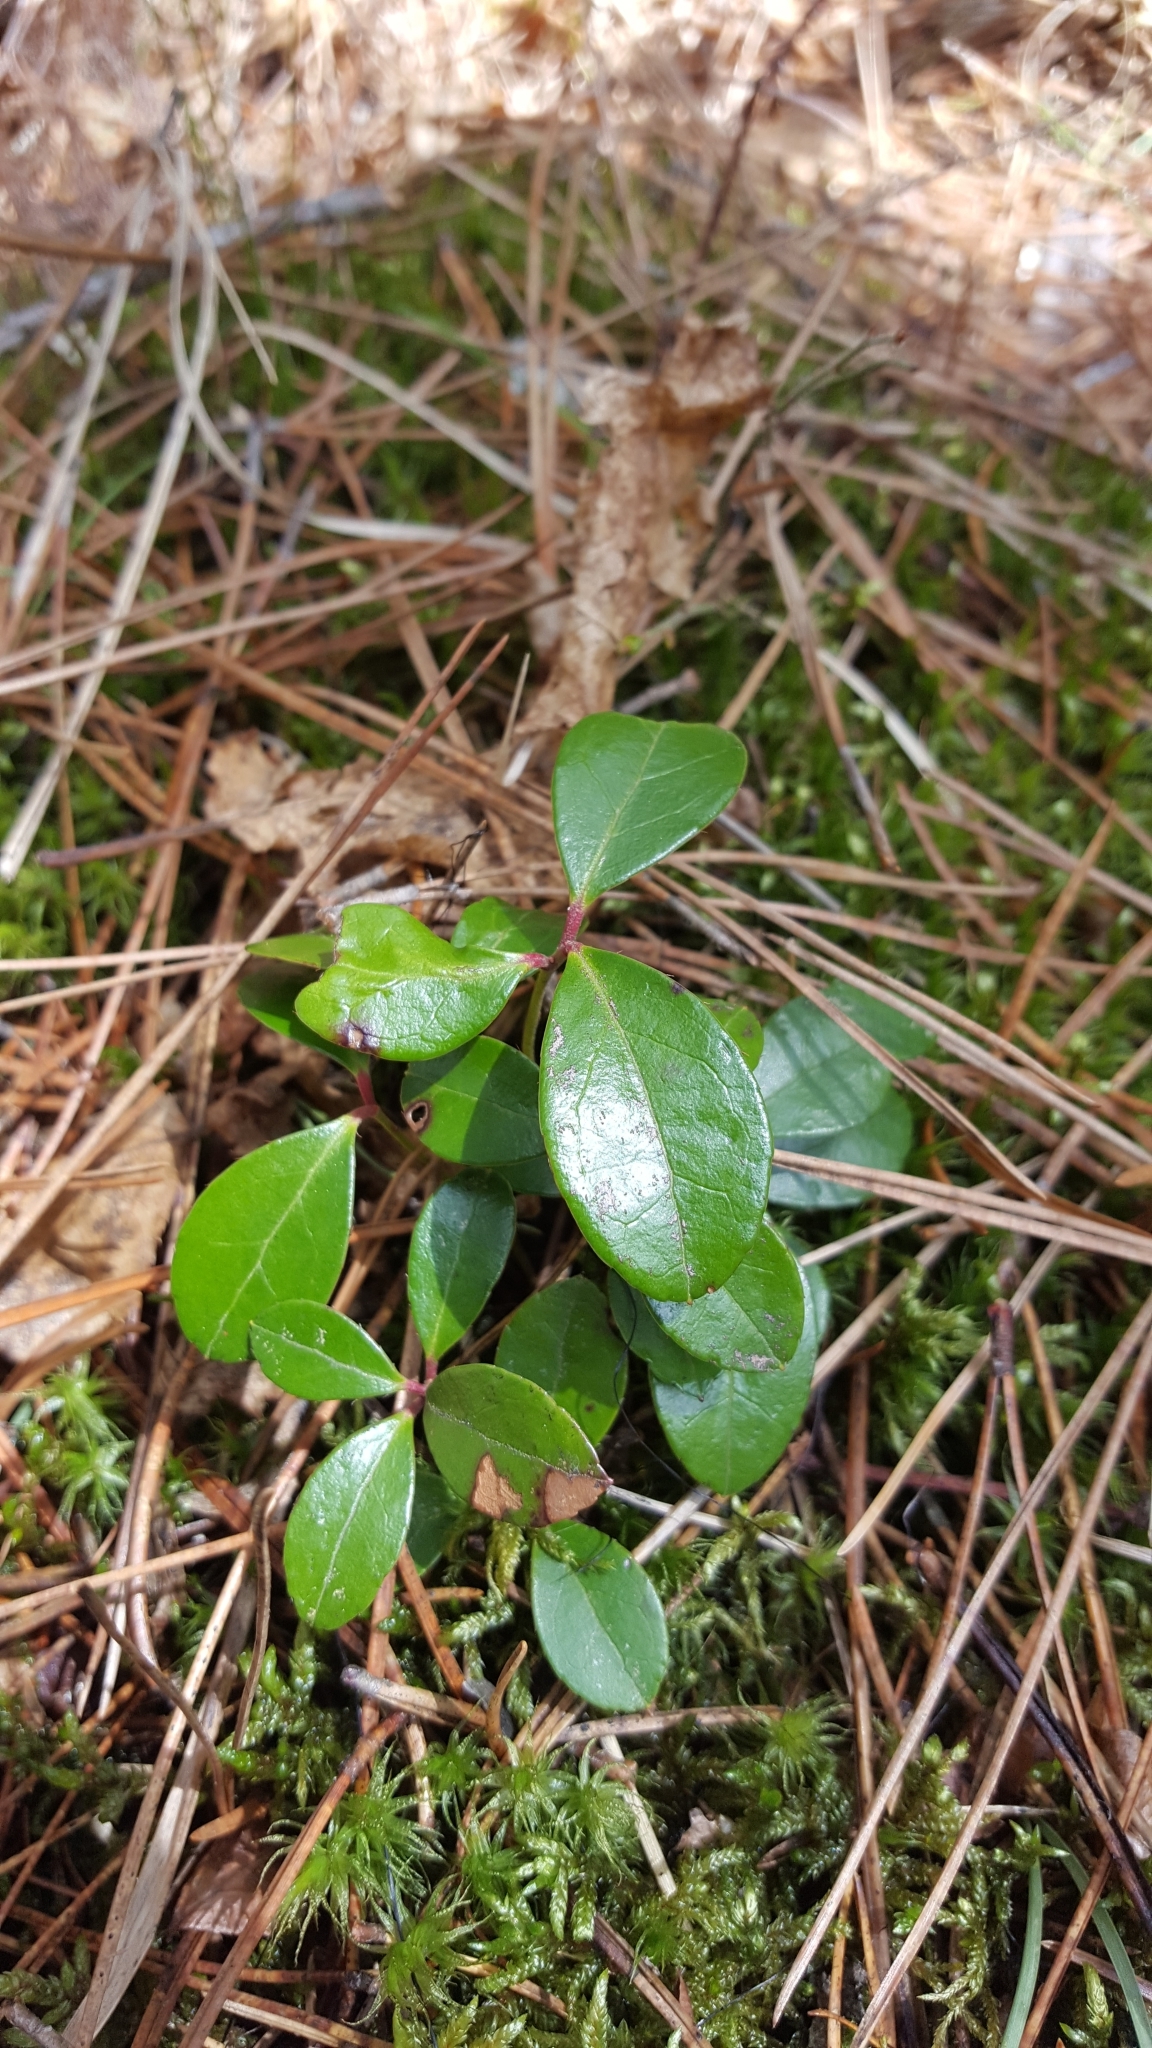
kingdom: Plantae
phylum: Tracheophyta
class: Magnoliopsida
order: Ericales
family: Ericaceae
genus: Gaultheria
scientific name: Gaultheria procumbens
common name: Checkerberry
